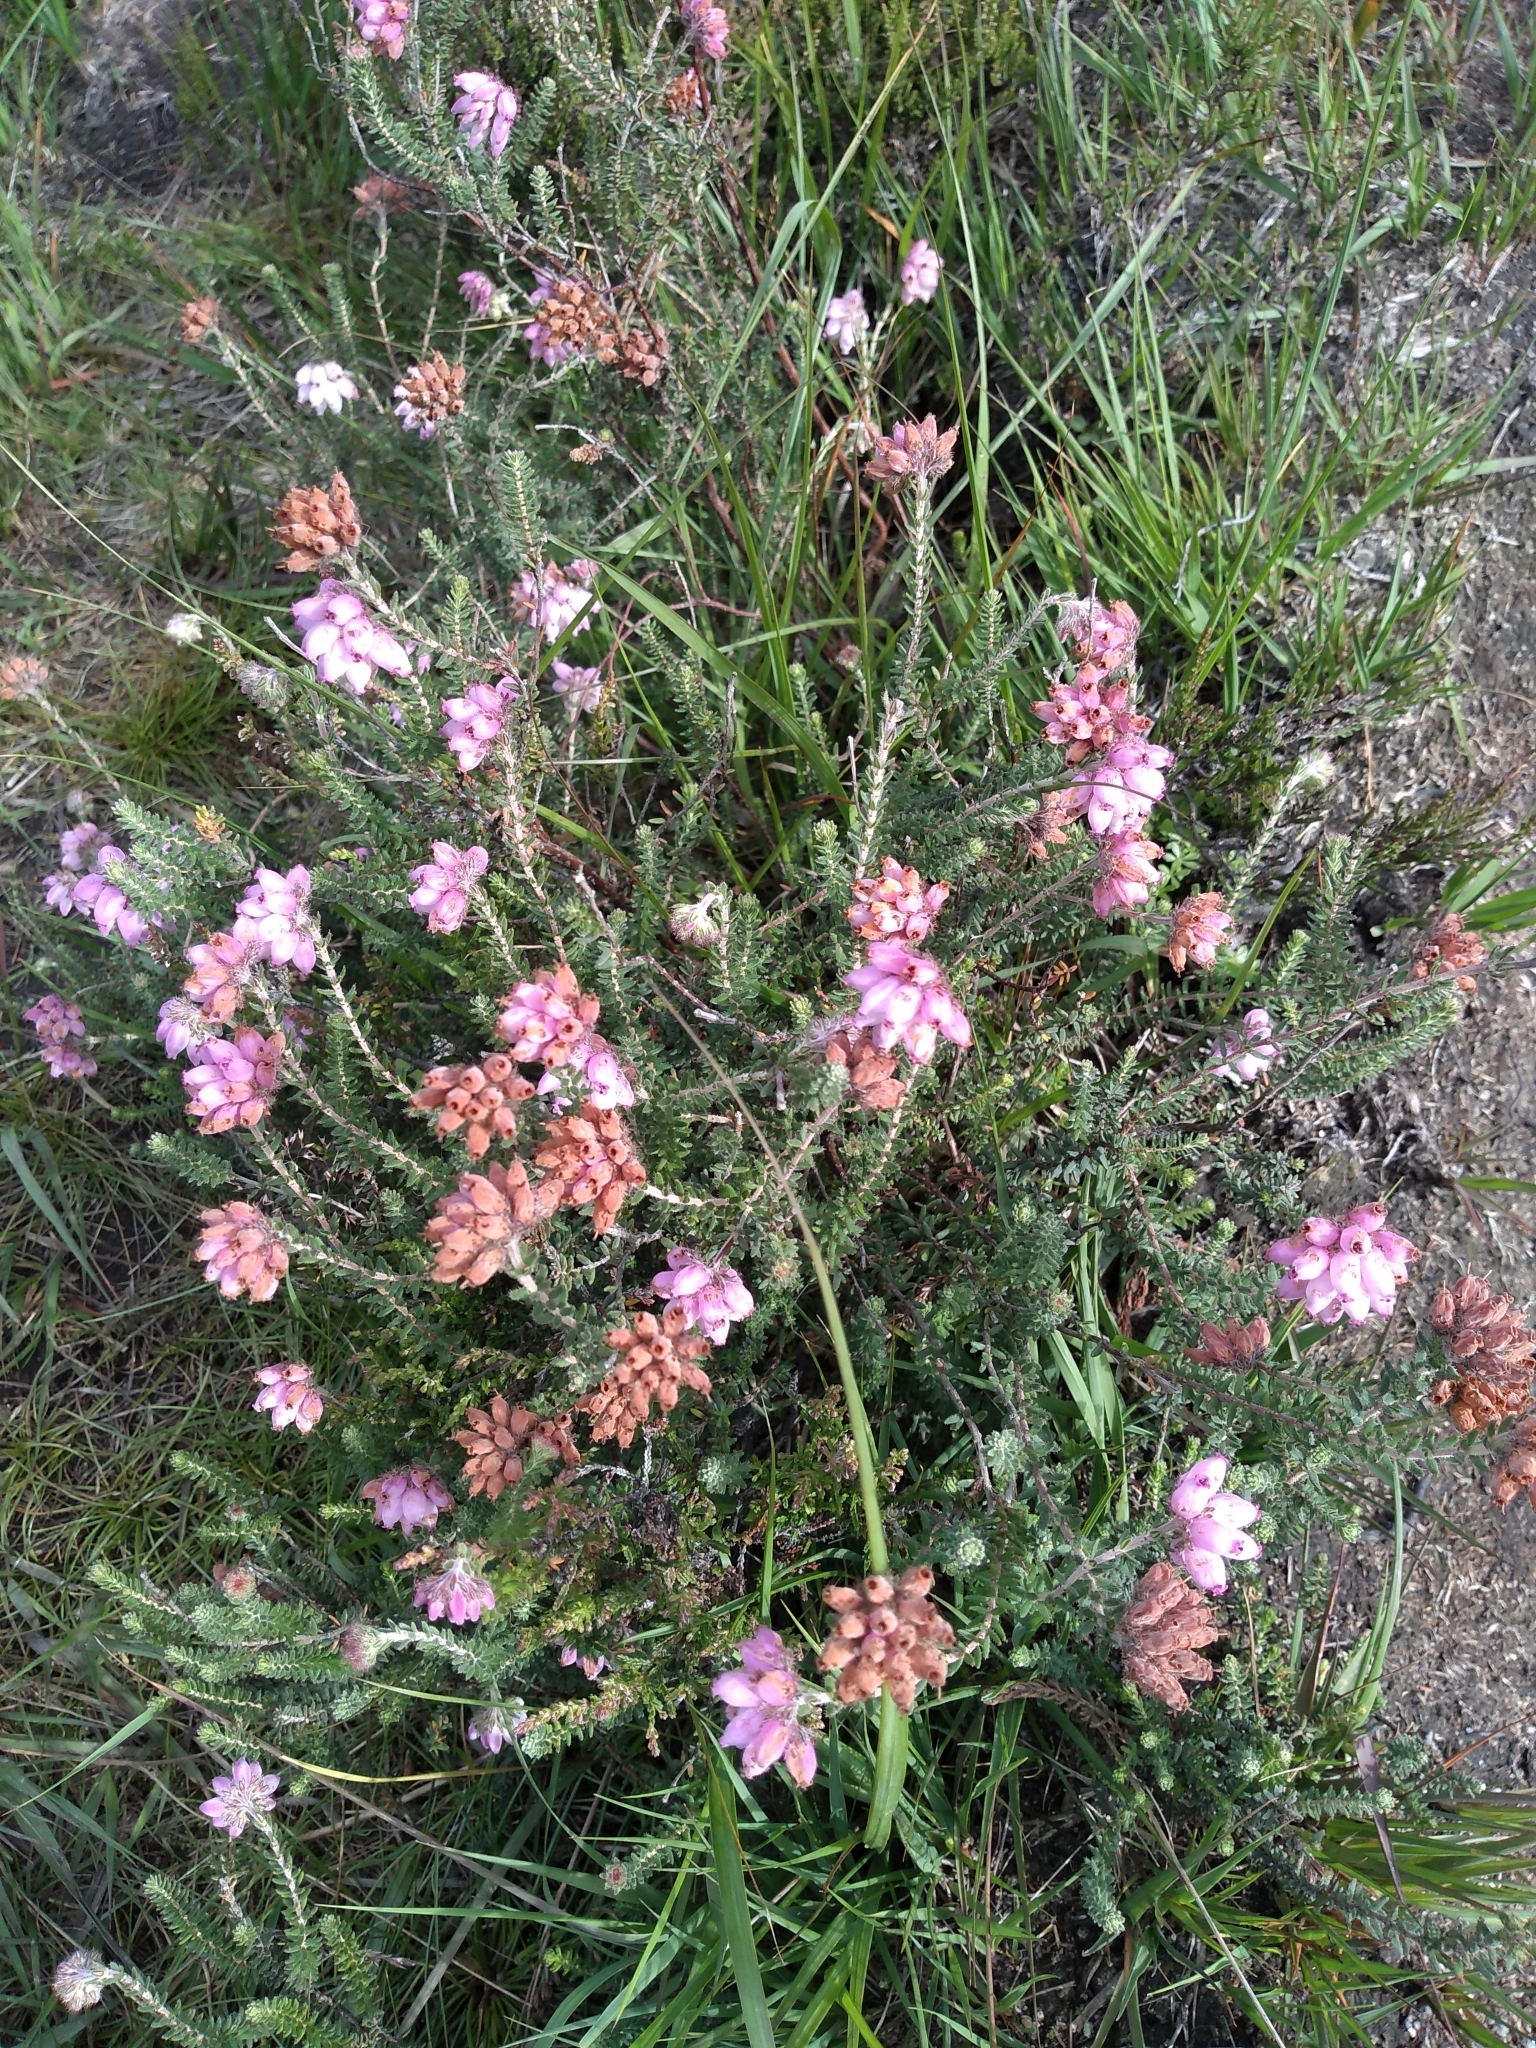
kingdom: Plantae
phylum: Tracheophyta
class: Magnoliopsida
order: Ericales
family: Ericaceae
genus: Erica
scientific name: Erica tetralix
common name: Cross-leaved heath
